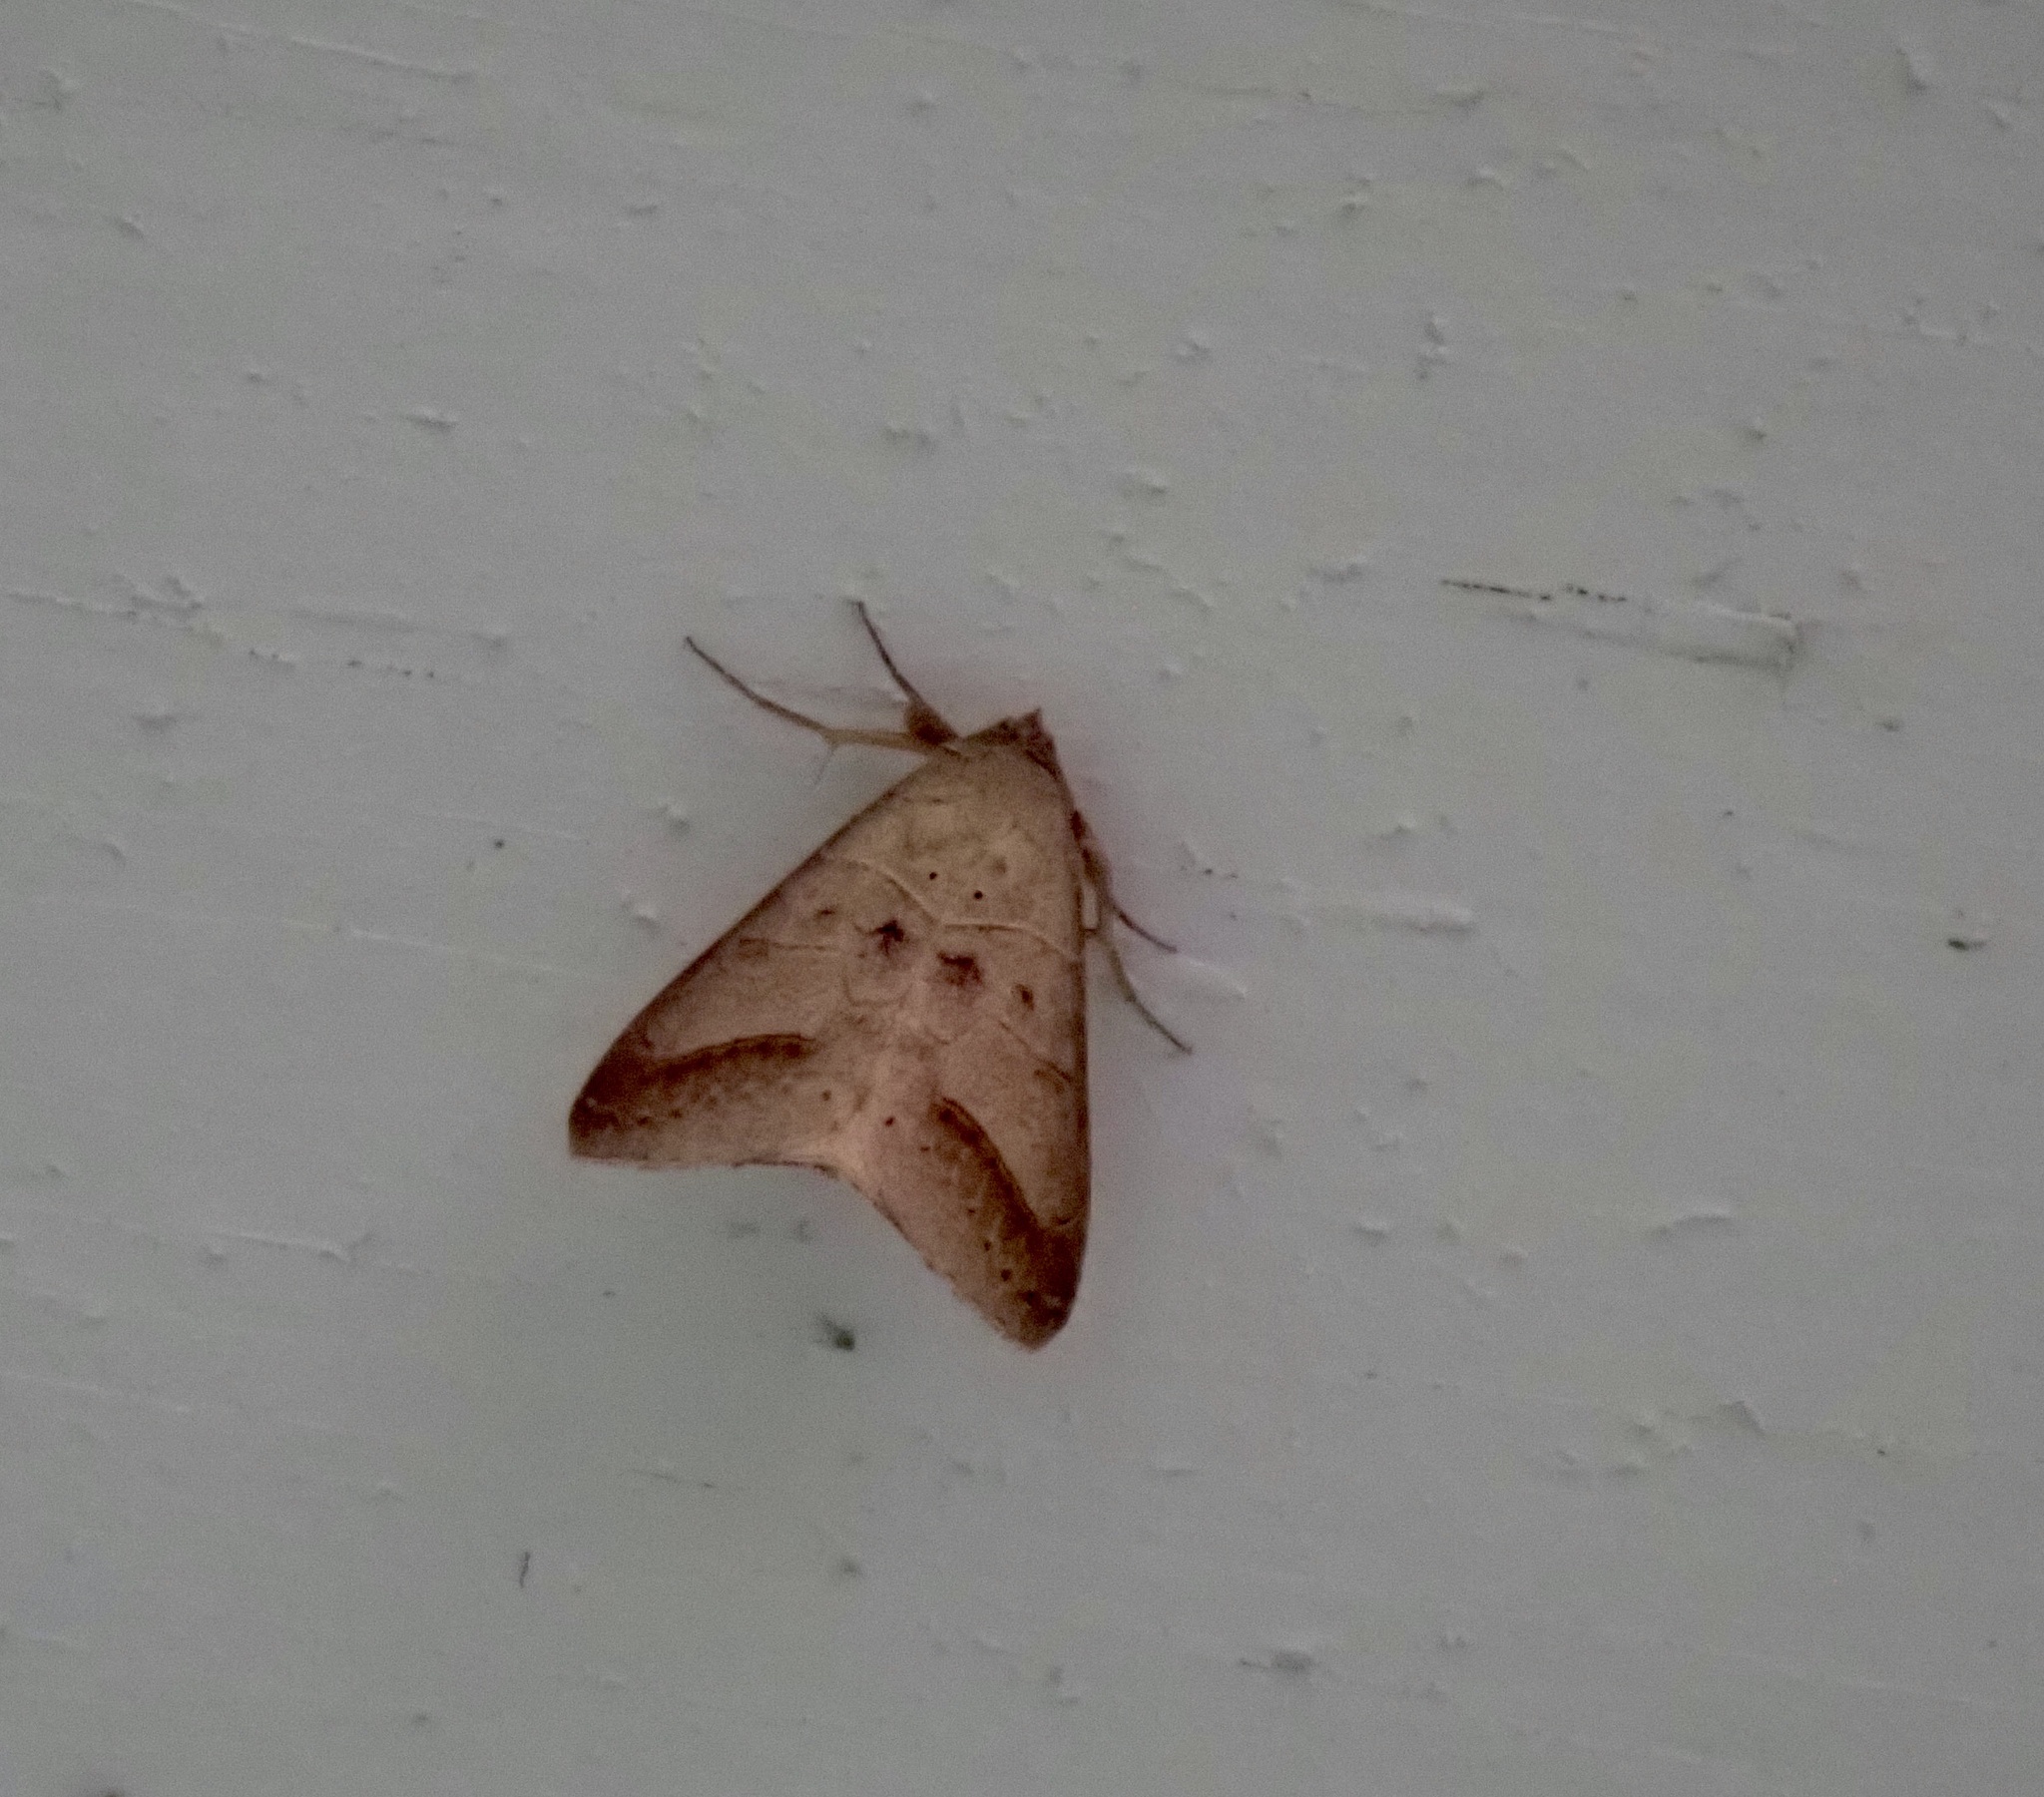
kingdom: Animalia
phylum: Arthropoda
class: Insecta
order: Lepidoptera
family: Erebidae
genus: Mocis
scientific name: Mocis marcida
